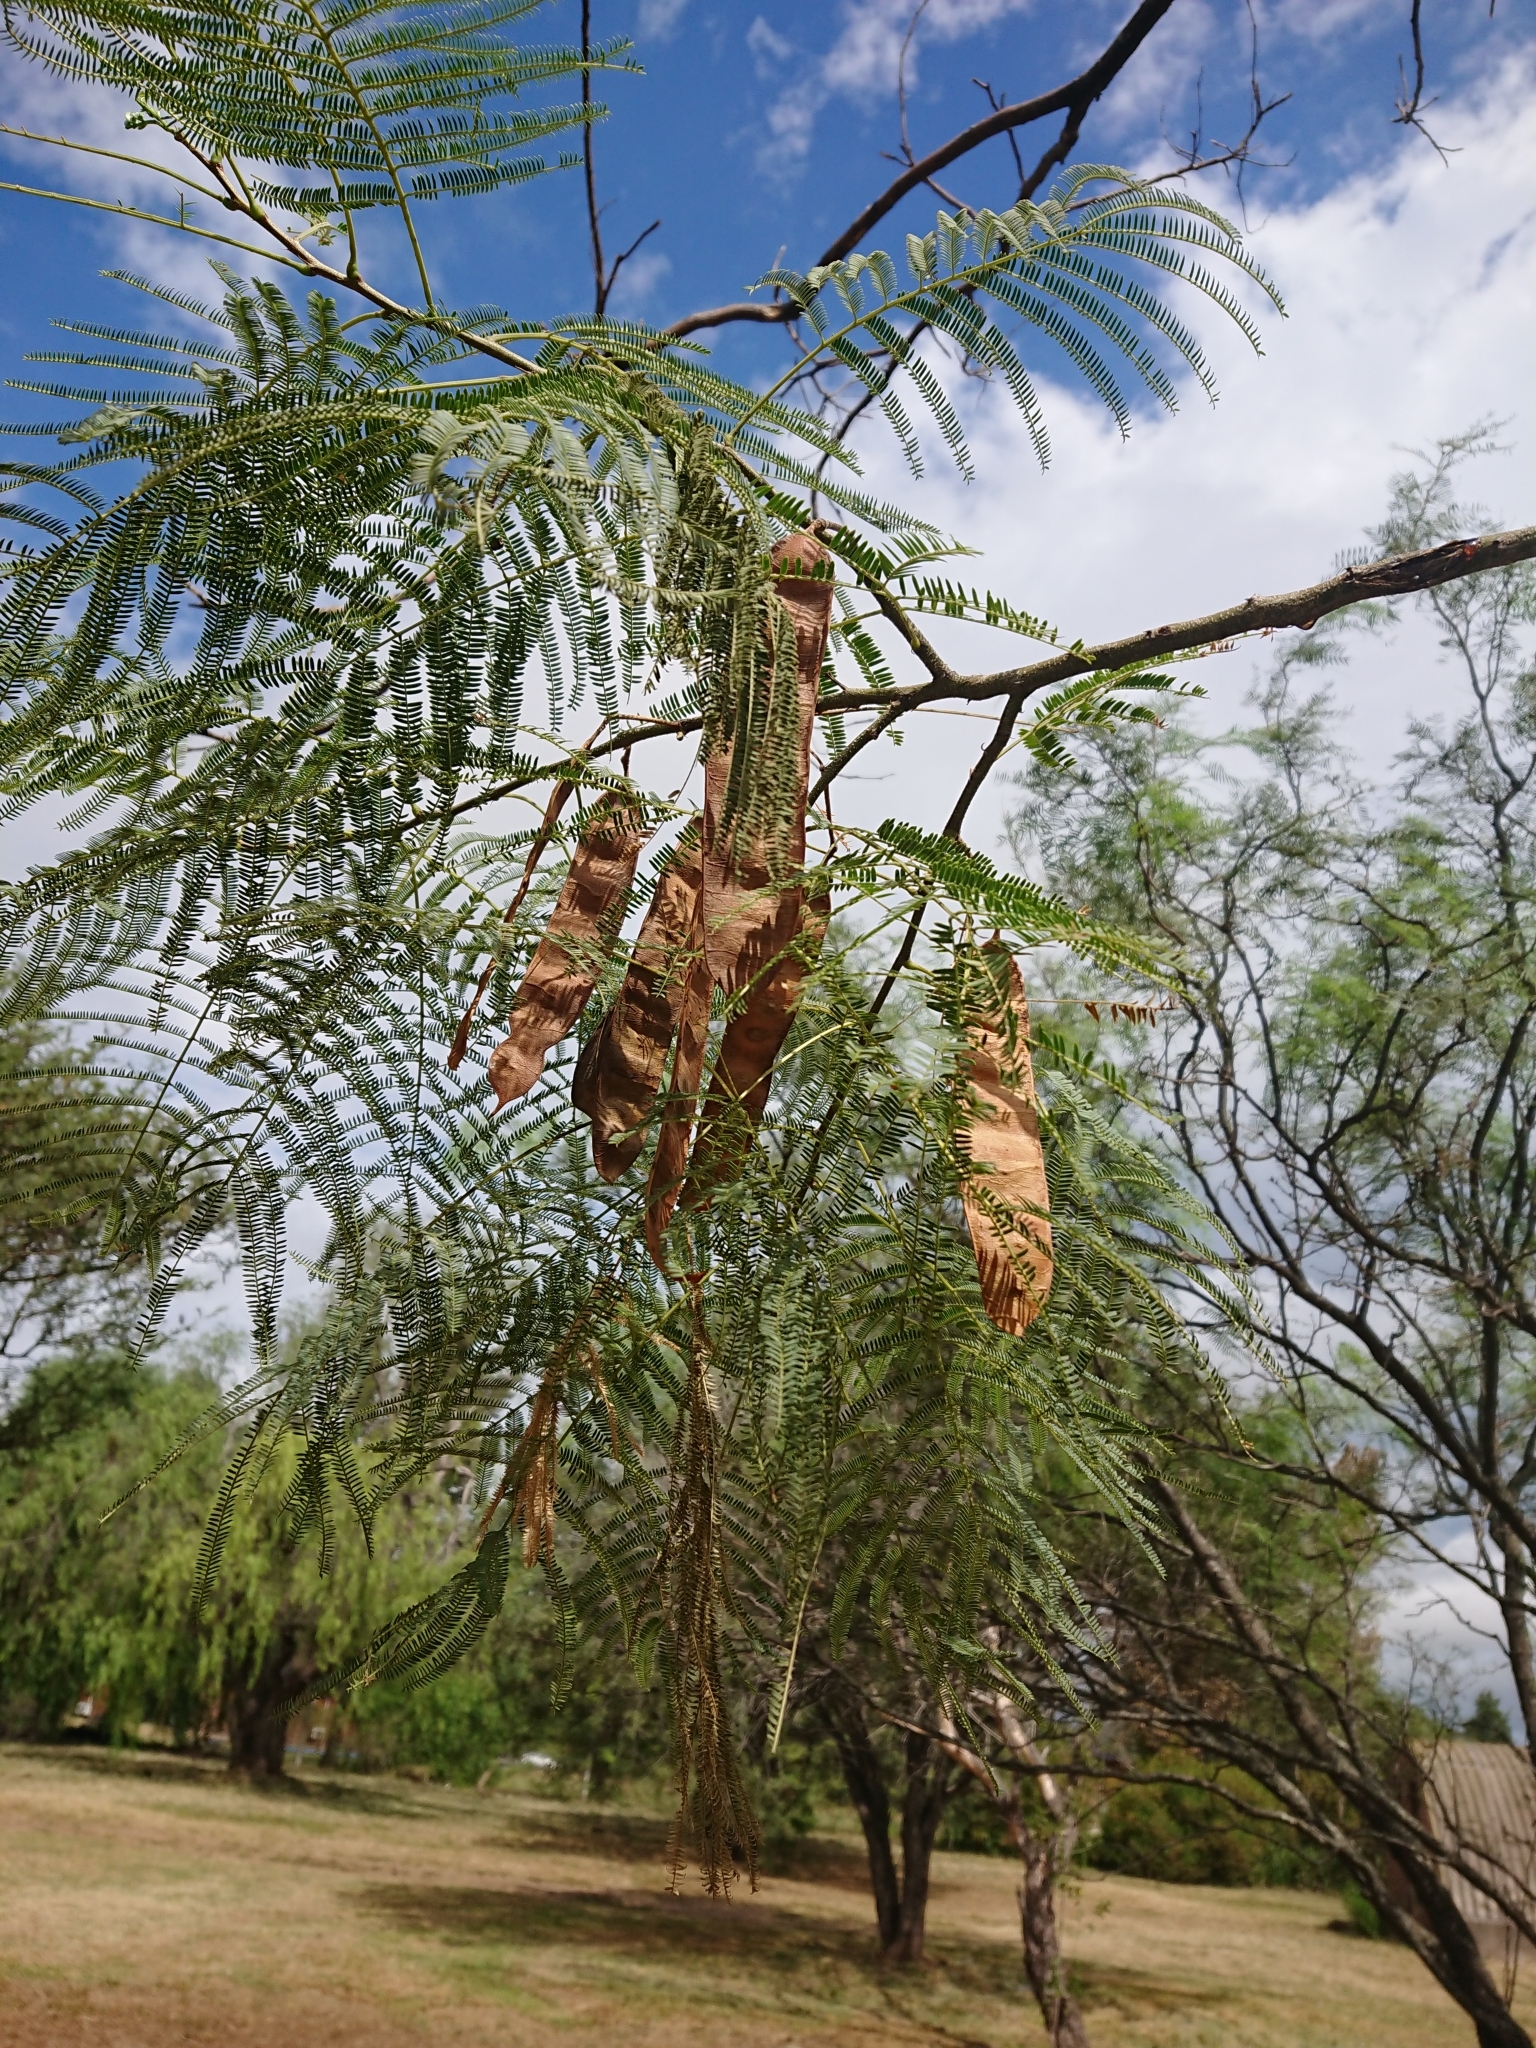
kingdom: Plantae
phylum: Tracheophyta
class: Magnoliopsida
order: Fabales
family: Fabaceae
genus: Parasenegalia
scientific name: Parasenegalia visco
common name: Visco
